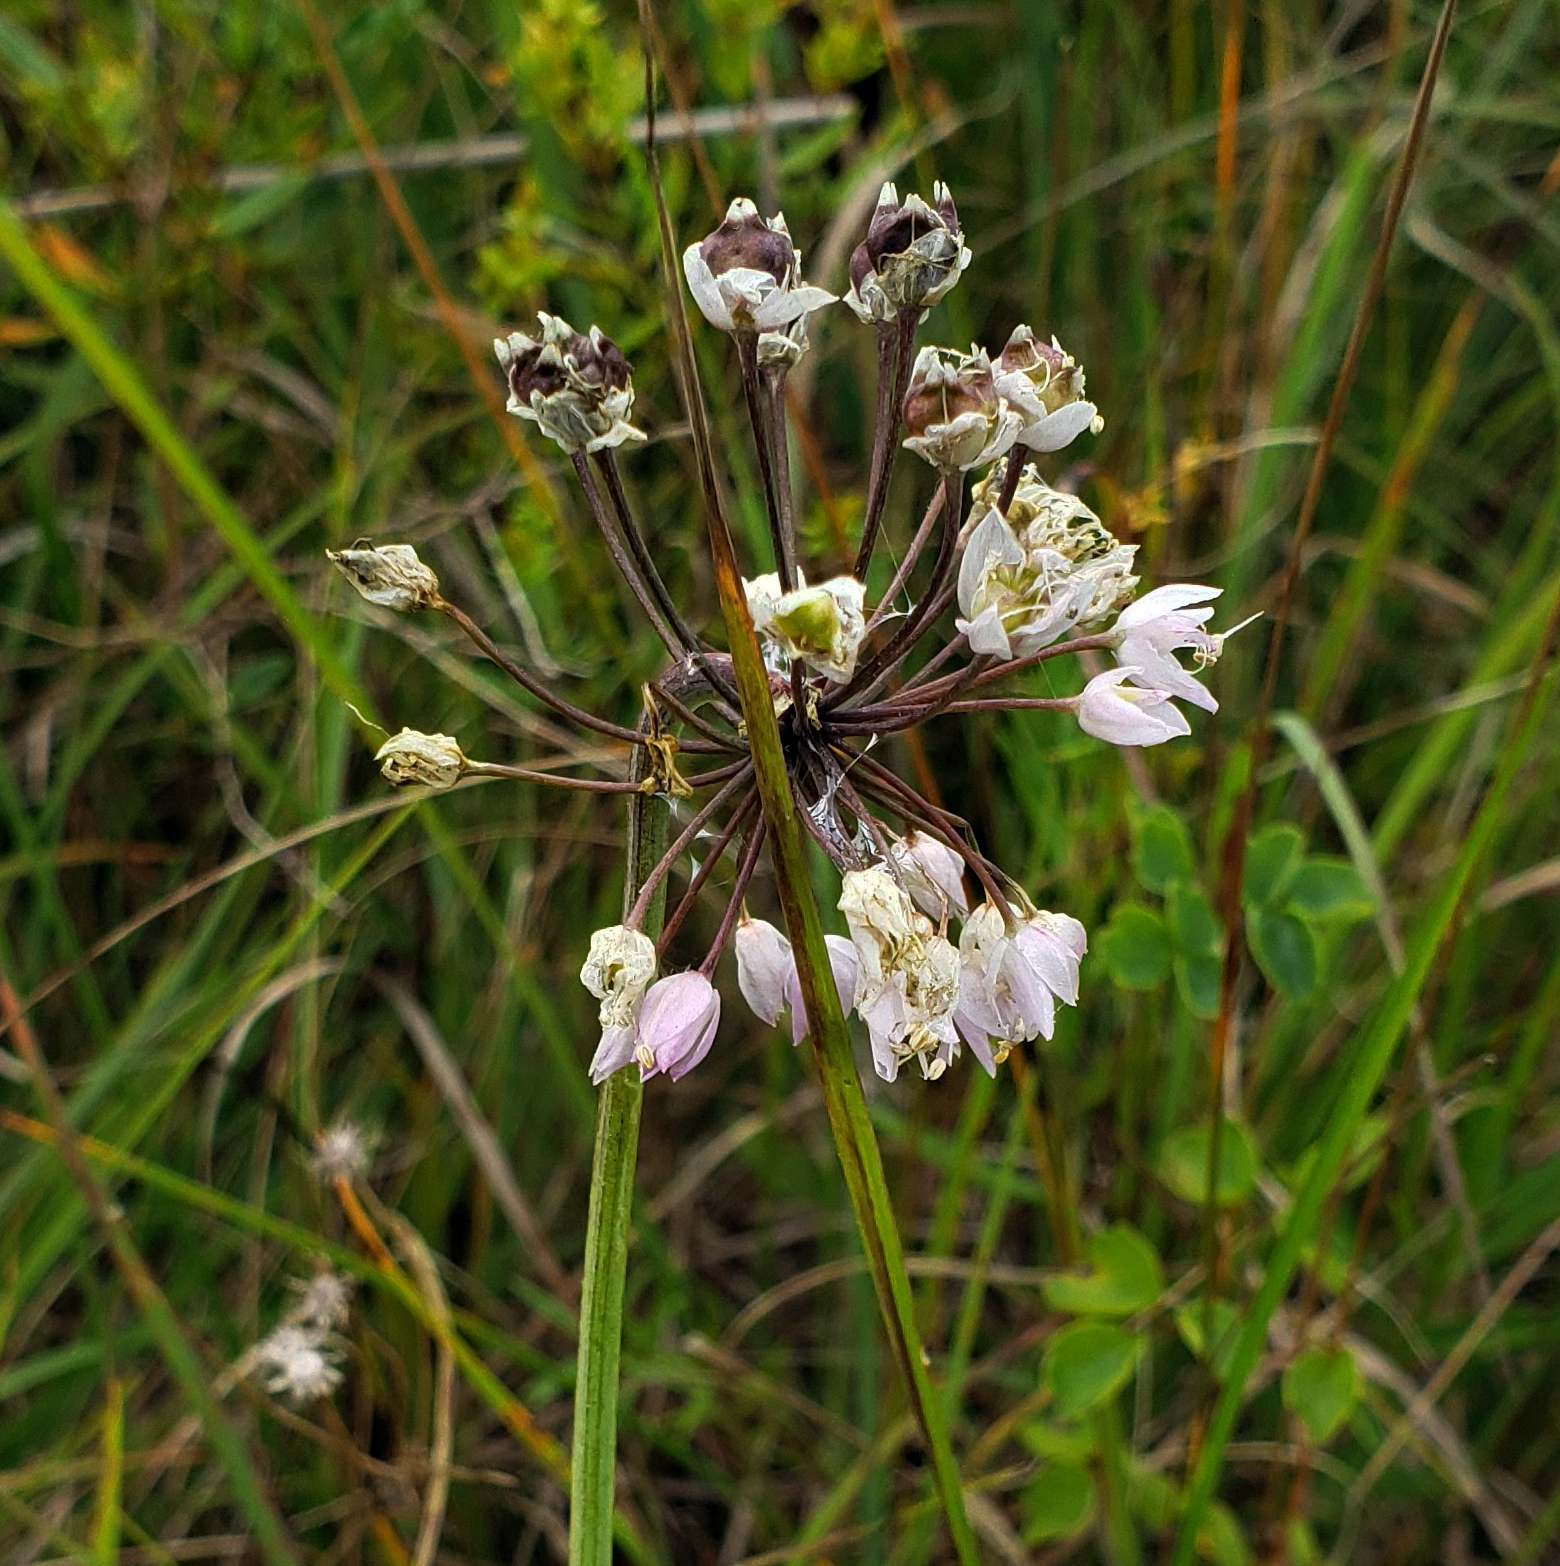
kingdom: Plantae
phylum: Tracheophyta
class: Liliopsida
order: Asparagales
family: Amaryllidaceae
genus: Allium
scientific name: Allium cernuum
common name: Nodding onion
